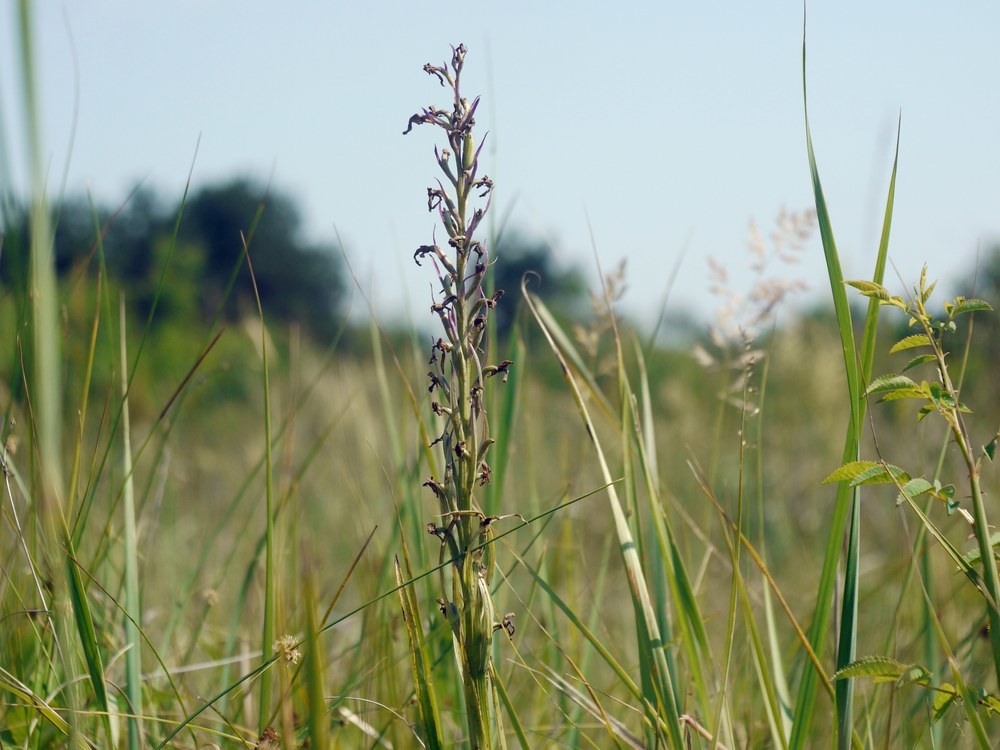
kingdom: Plantae
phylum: Tracheophyta
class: Liliopsida
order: Asparagales
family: Orchidaceae
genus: Anacamptis
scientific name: Anacamptis palustris
